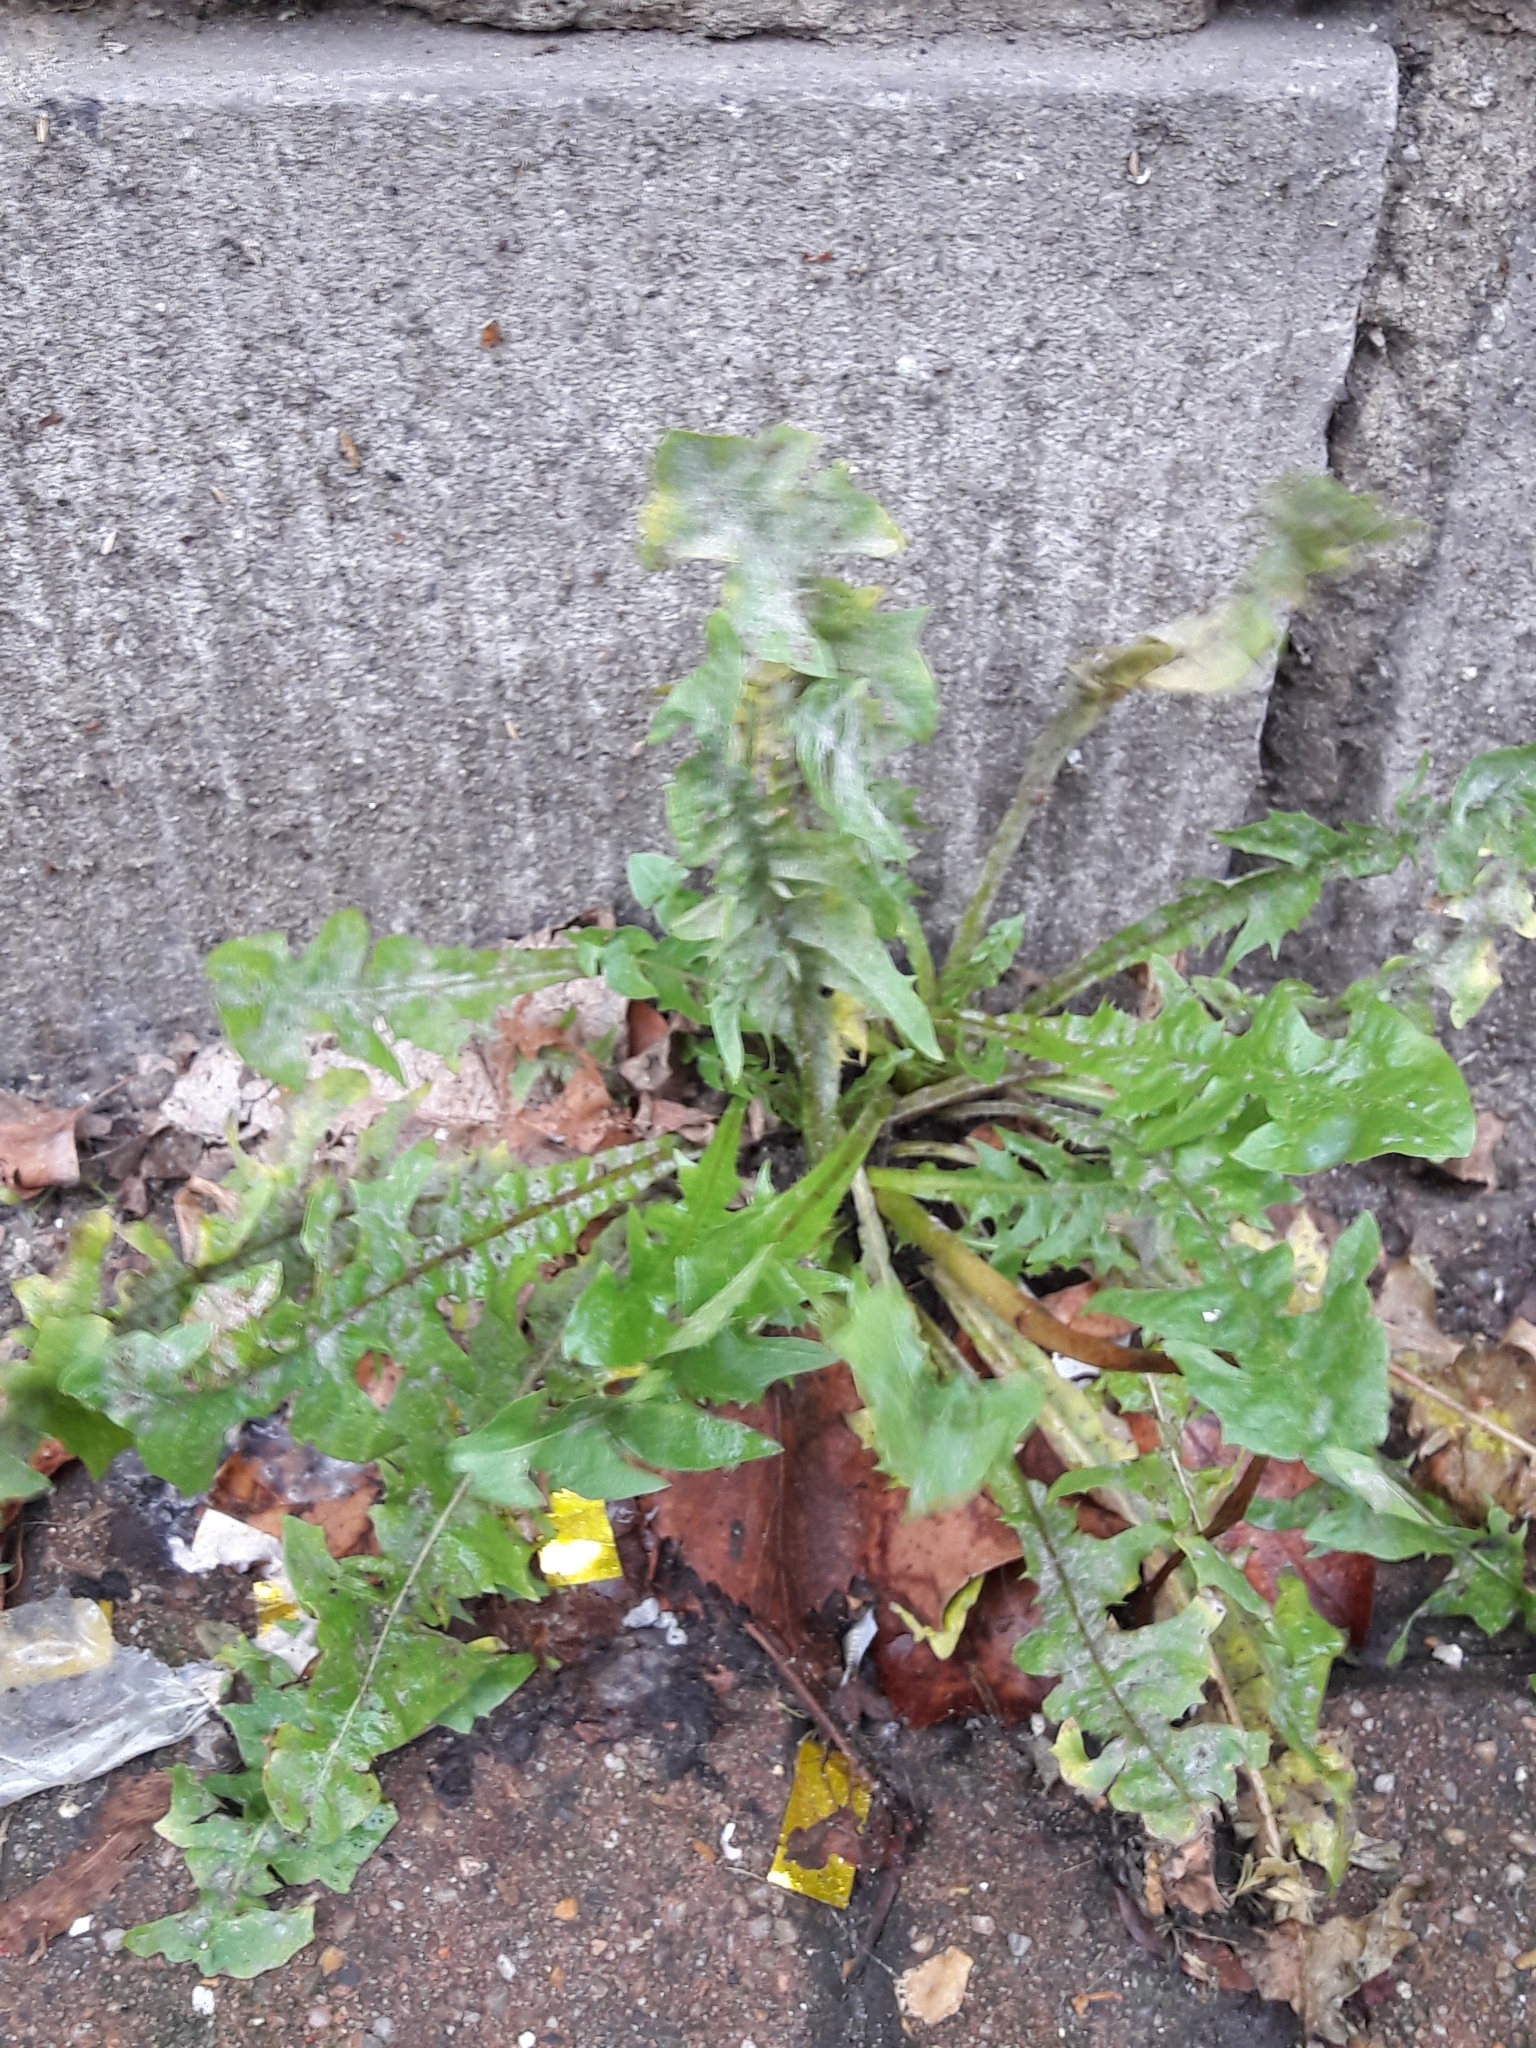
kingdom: Plantae
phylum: Tracheophyta
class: Magnoliopsida
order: Asterales
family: Asteraceae
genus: Taraxacum
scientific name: Taraxacum officinale
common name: Common dandelion
